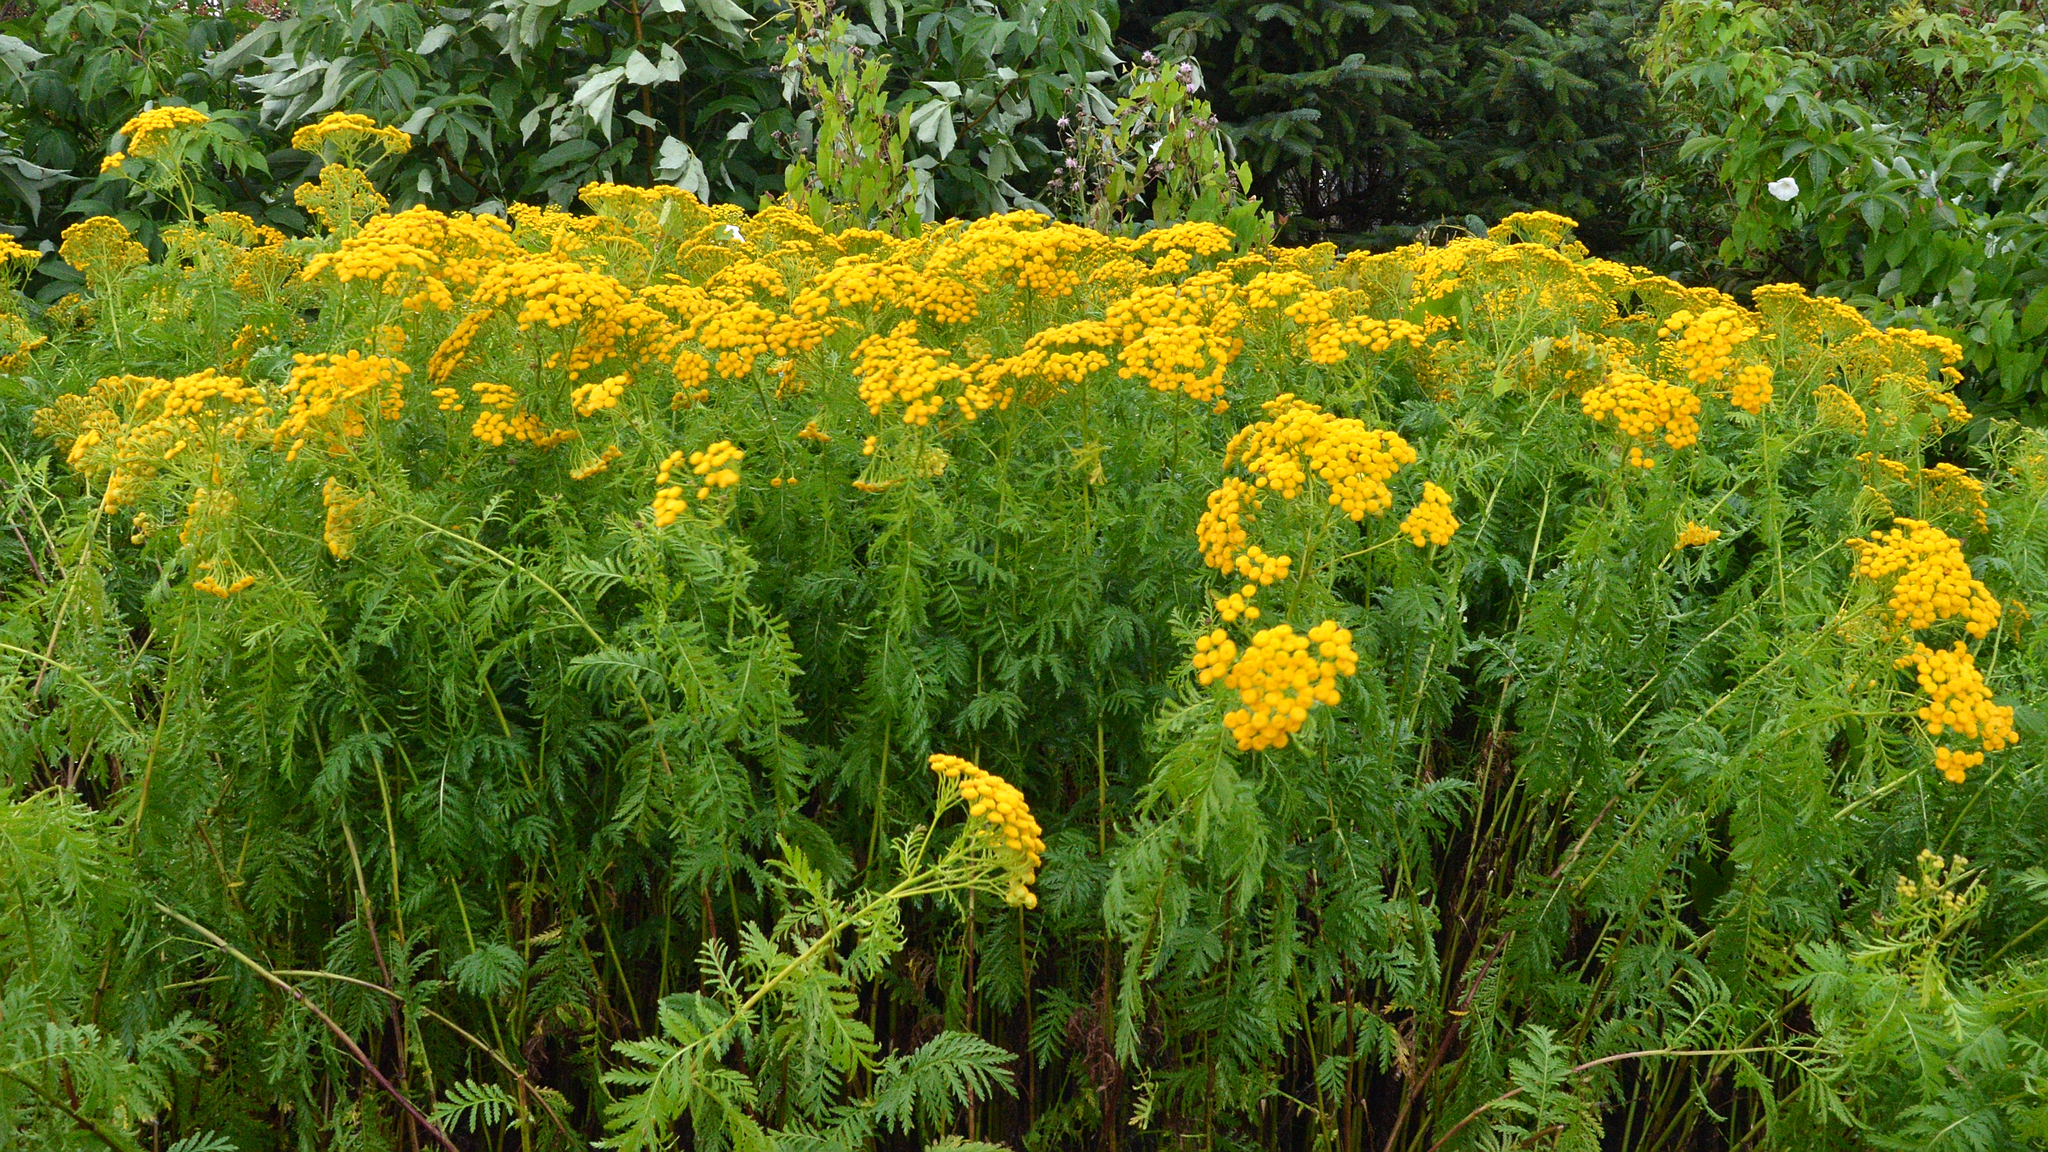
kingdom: Plantae
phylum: Tracheophyta
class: Magnoliopsida
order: Asterales
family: Asteraceae
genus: Tanacetum
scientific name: Tanacetum vulgare
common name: Common tansy
